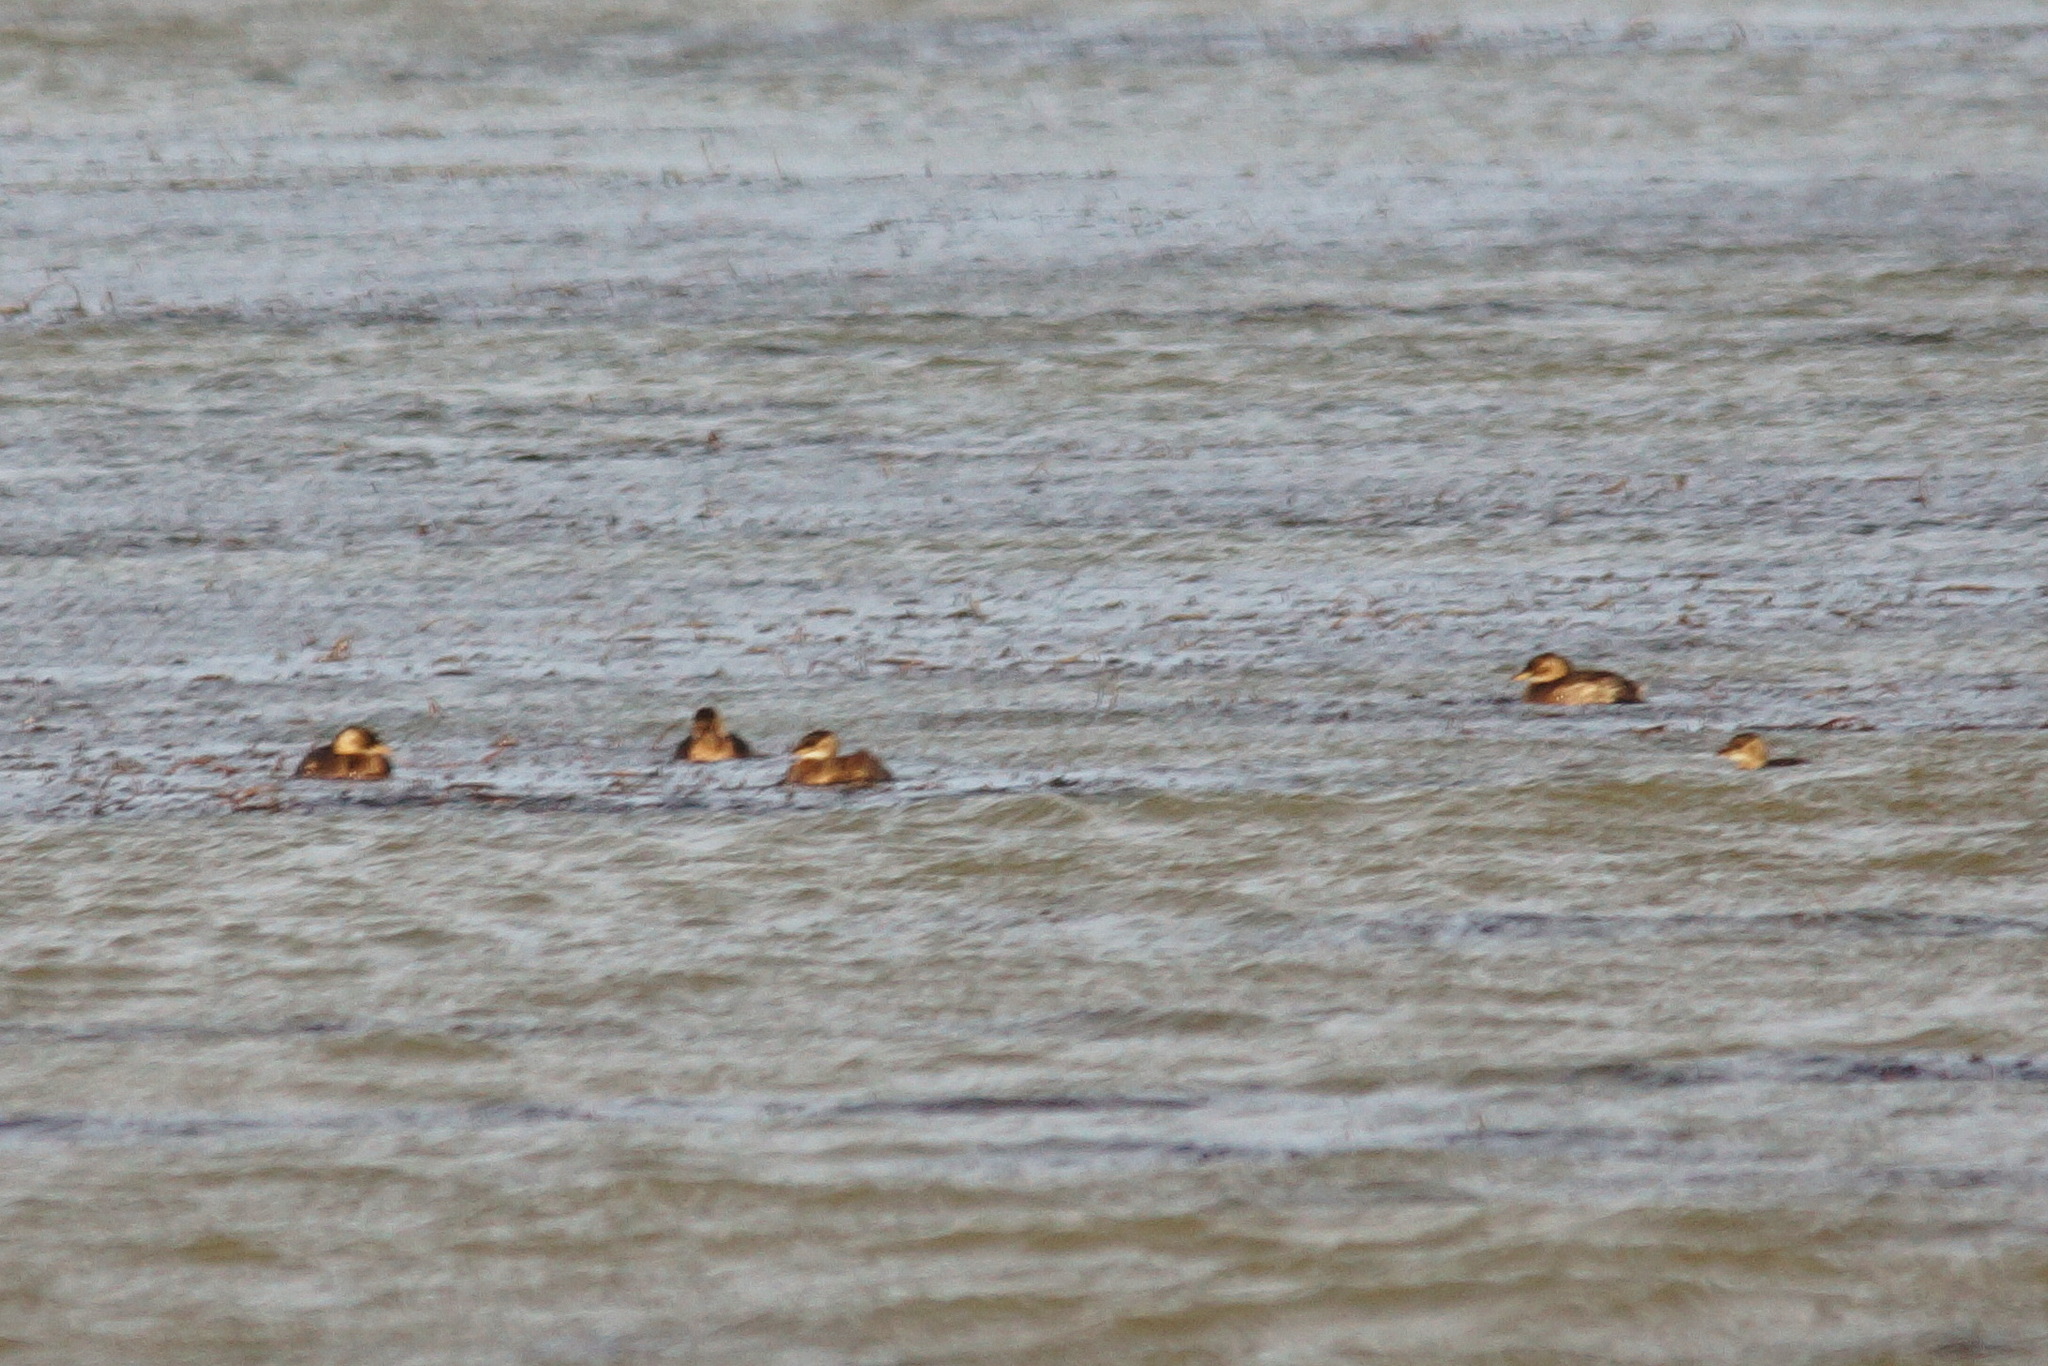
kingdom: Animalia
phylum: Chordata
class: Aves
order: Podicipediformes
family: Podicipedidae
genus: Tachybaptus
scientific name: Tachybaptus ruficollis
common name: Little grebe
